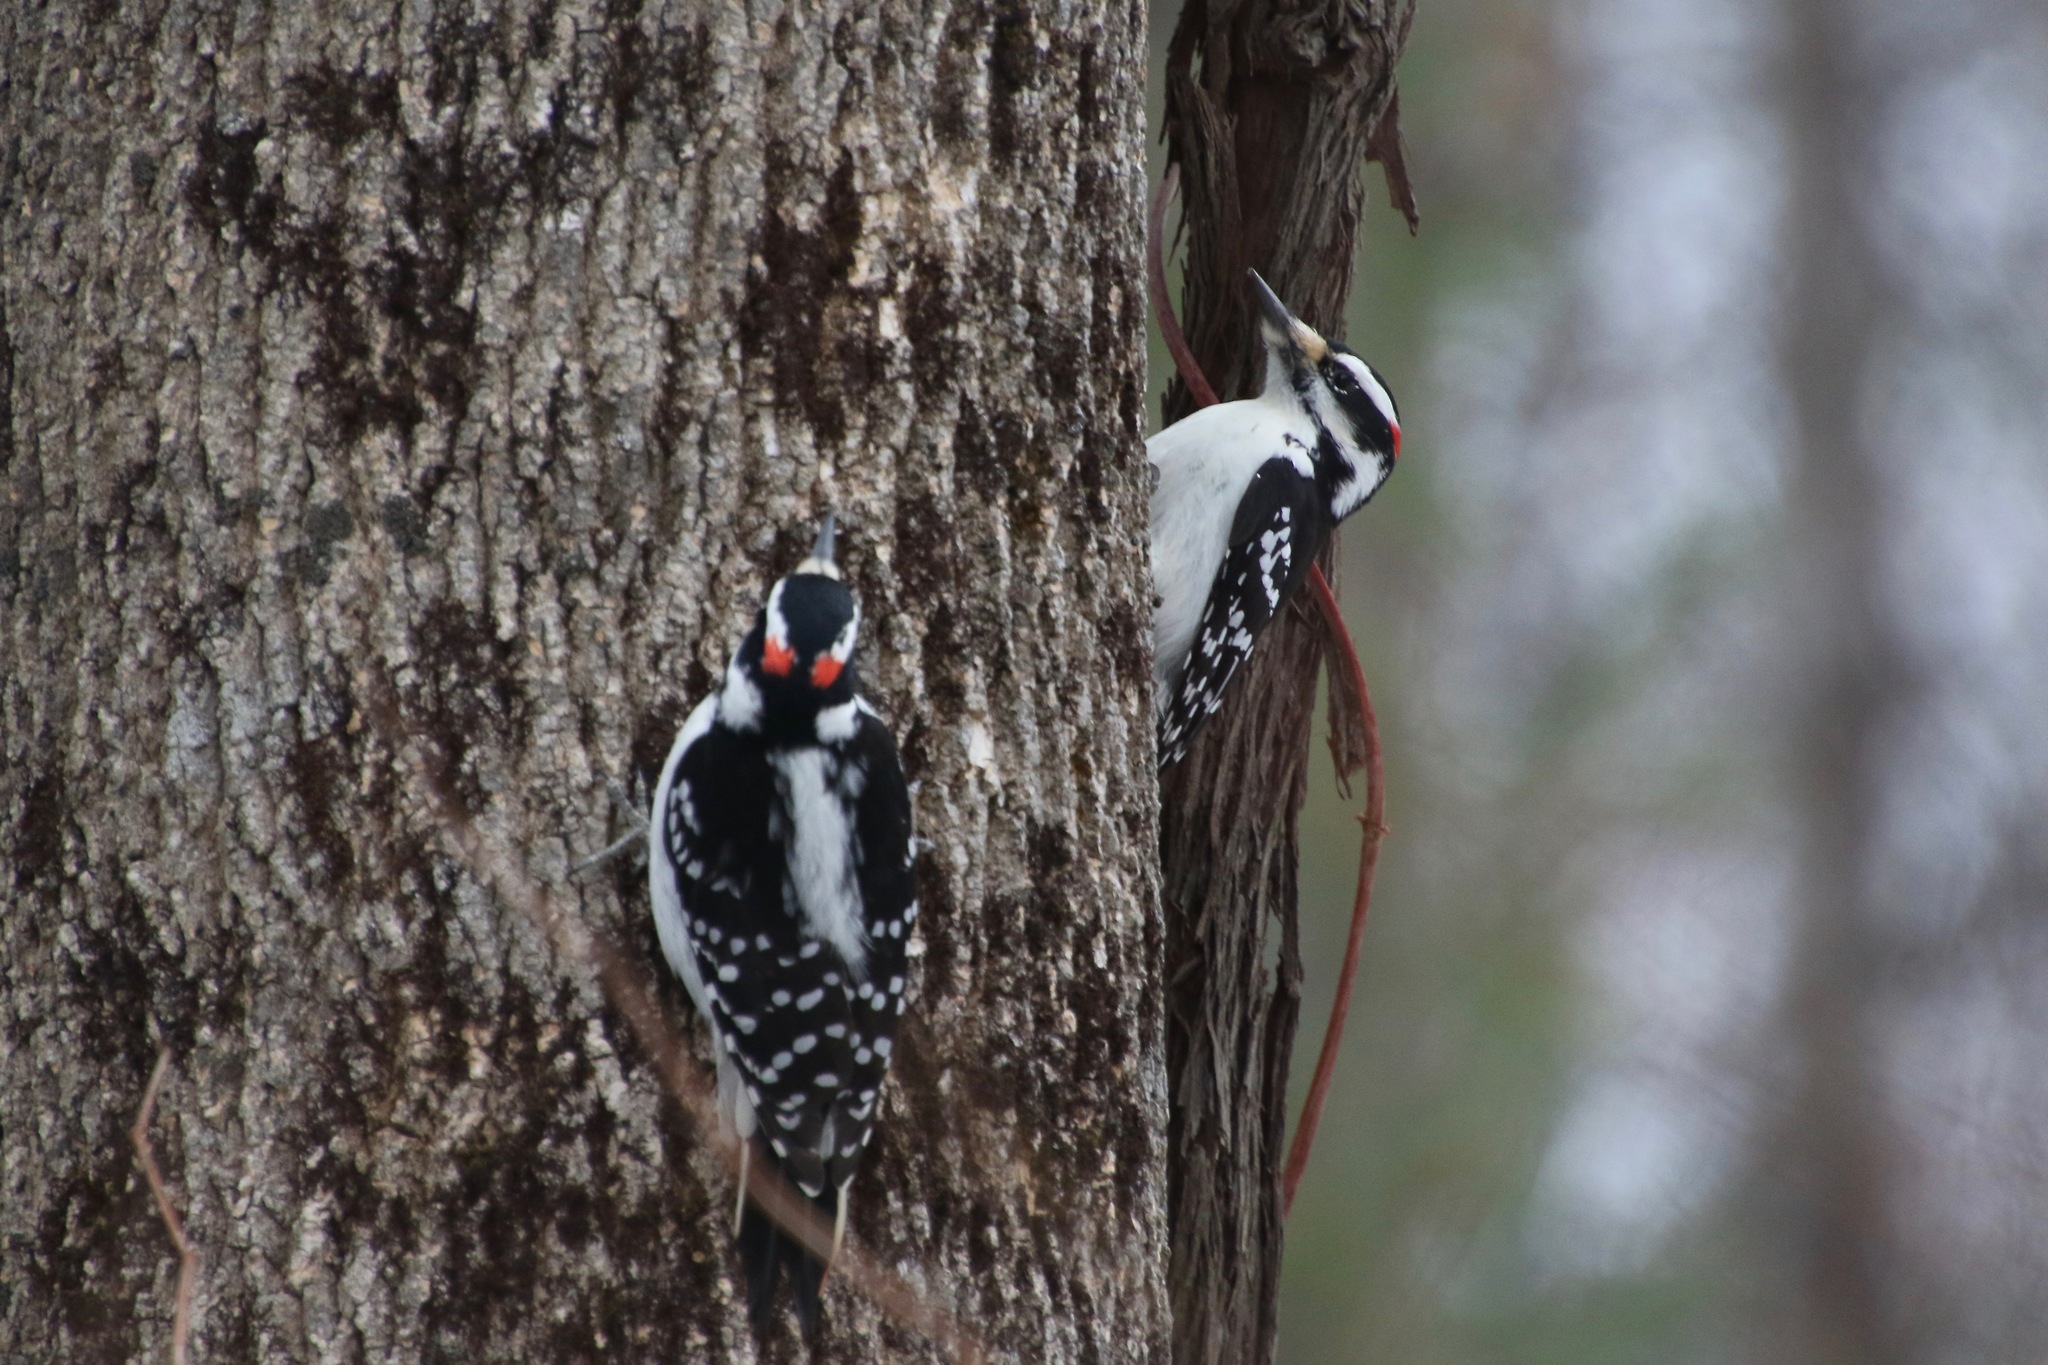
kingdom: Animalia
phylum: Chordata
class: Aves
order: Piciformes
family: Picidae
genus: Leuconotopicus
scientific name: Leuconotopicus villosus
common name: Hairy woodpecker
